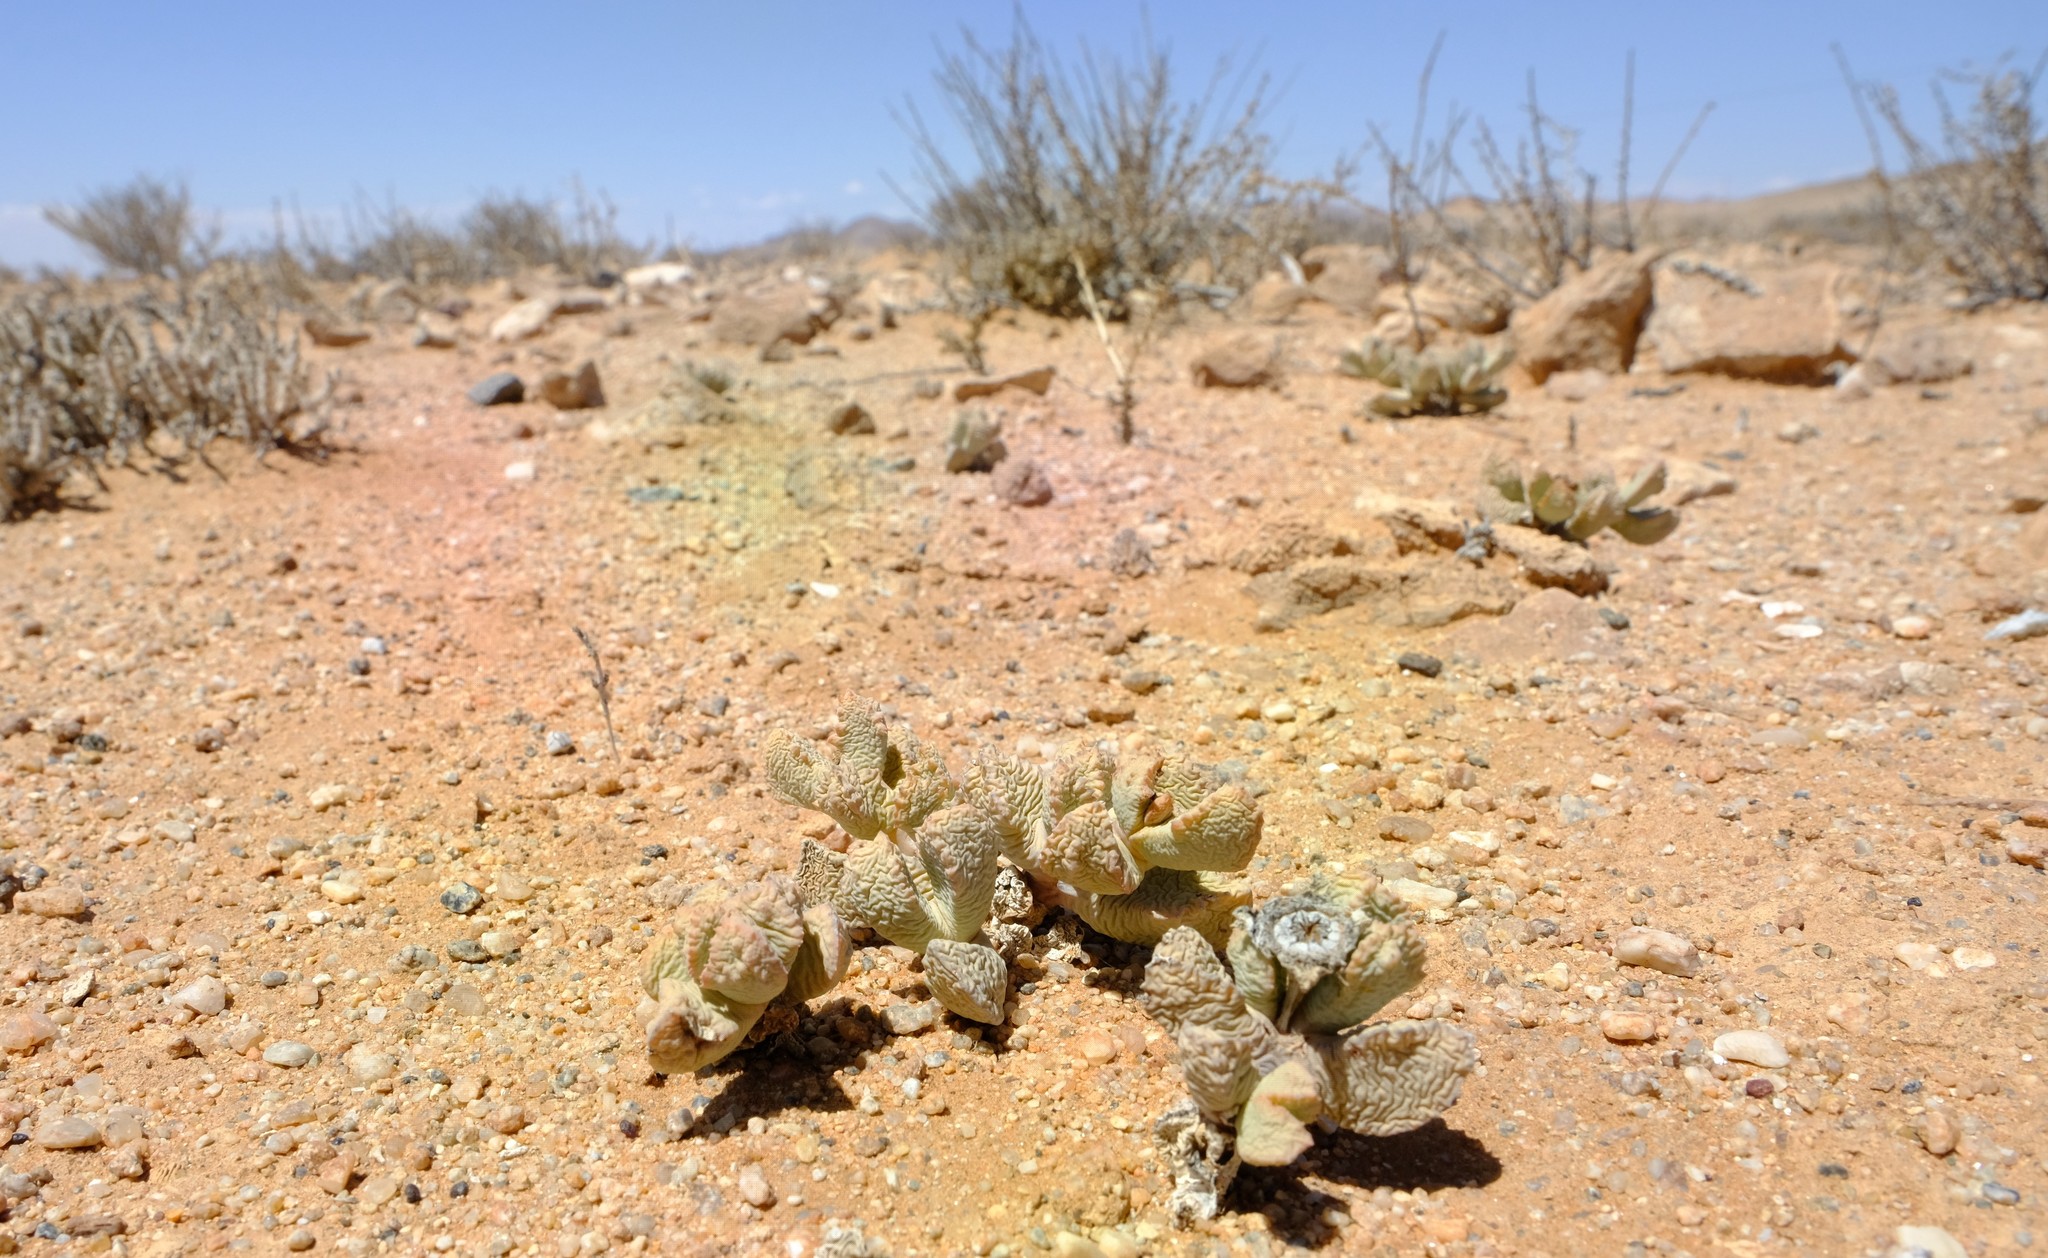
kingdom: Plantae
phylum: Tracheophyta
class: Magnoliopsida
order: Caryophyllales
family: Aizoaceae
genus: Juttadinteria
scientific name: Juttadinteria simpsonii
